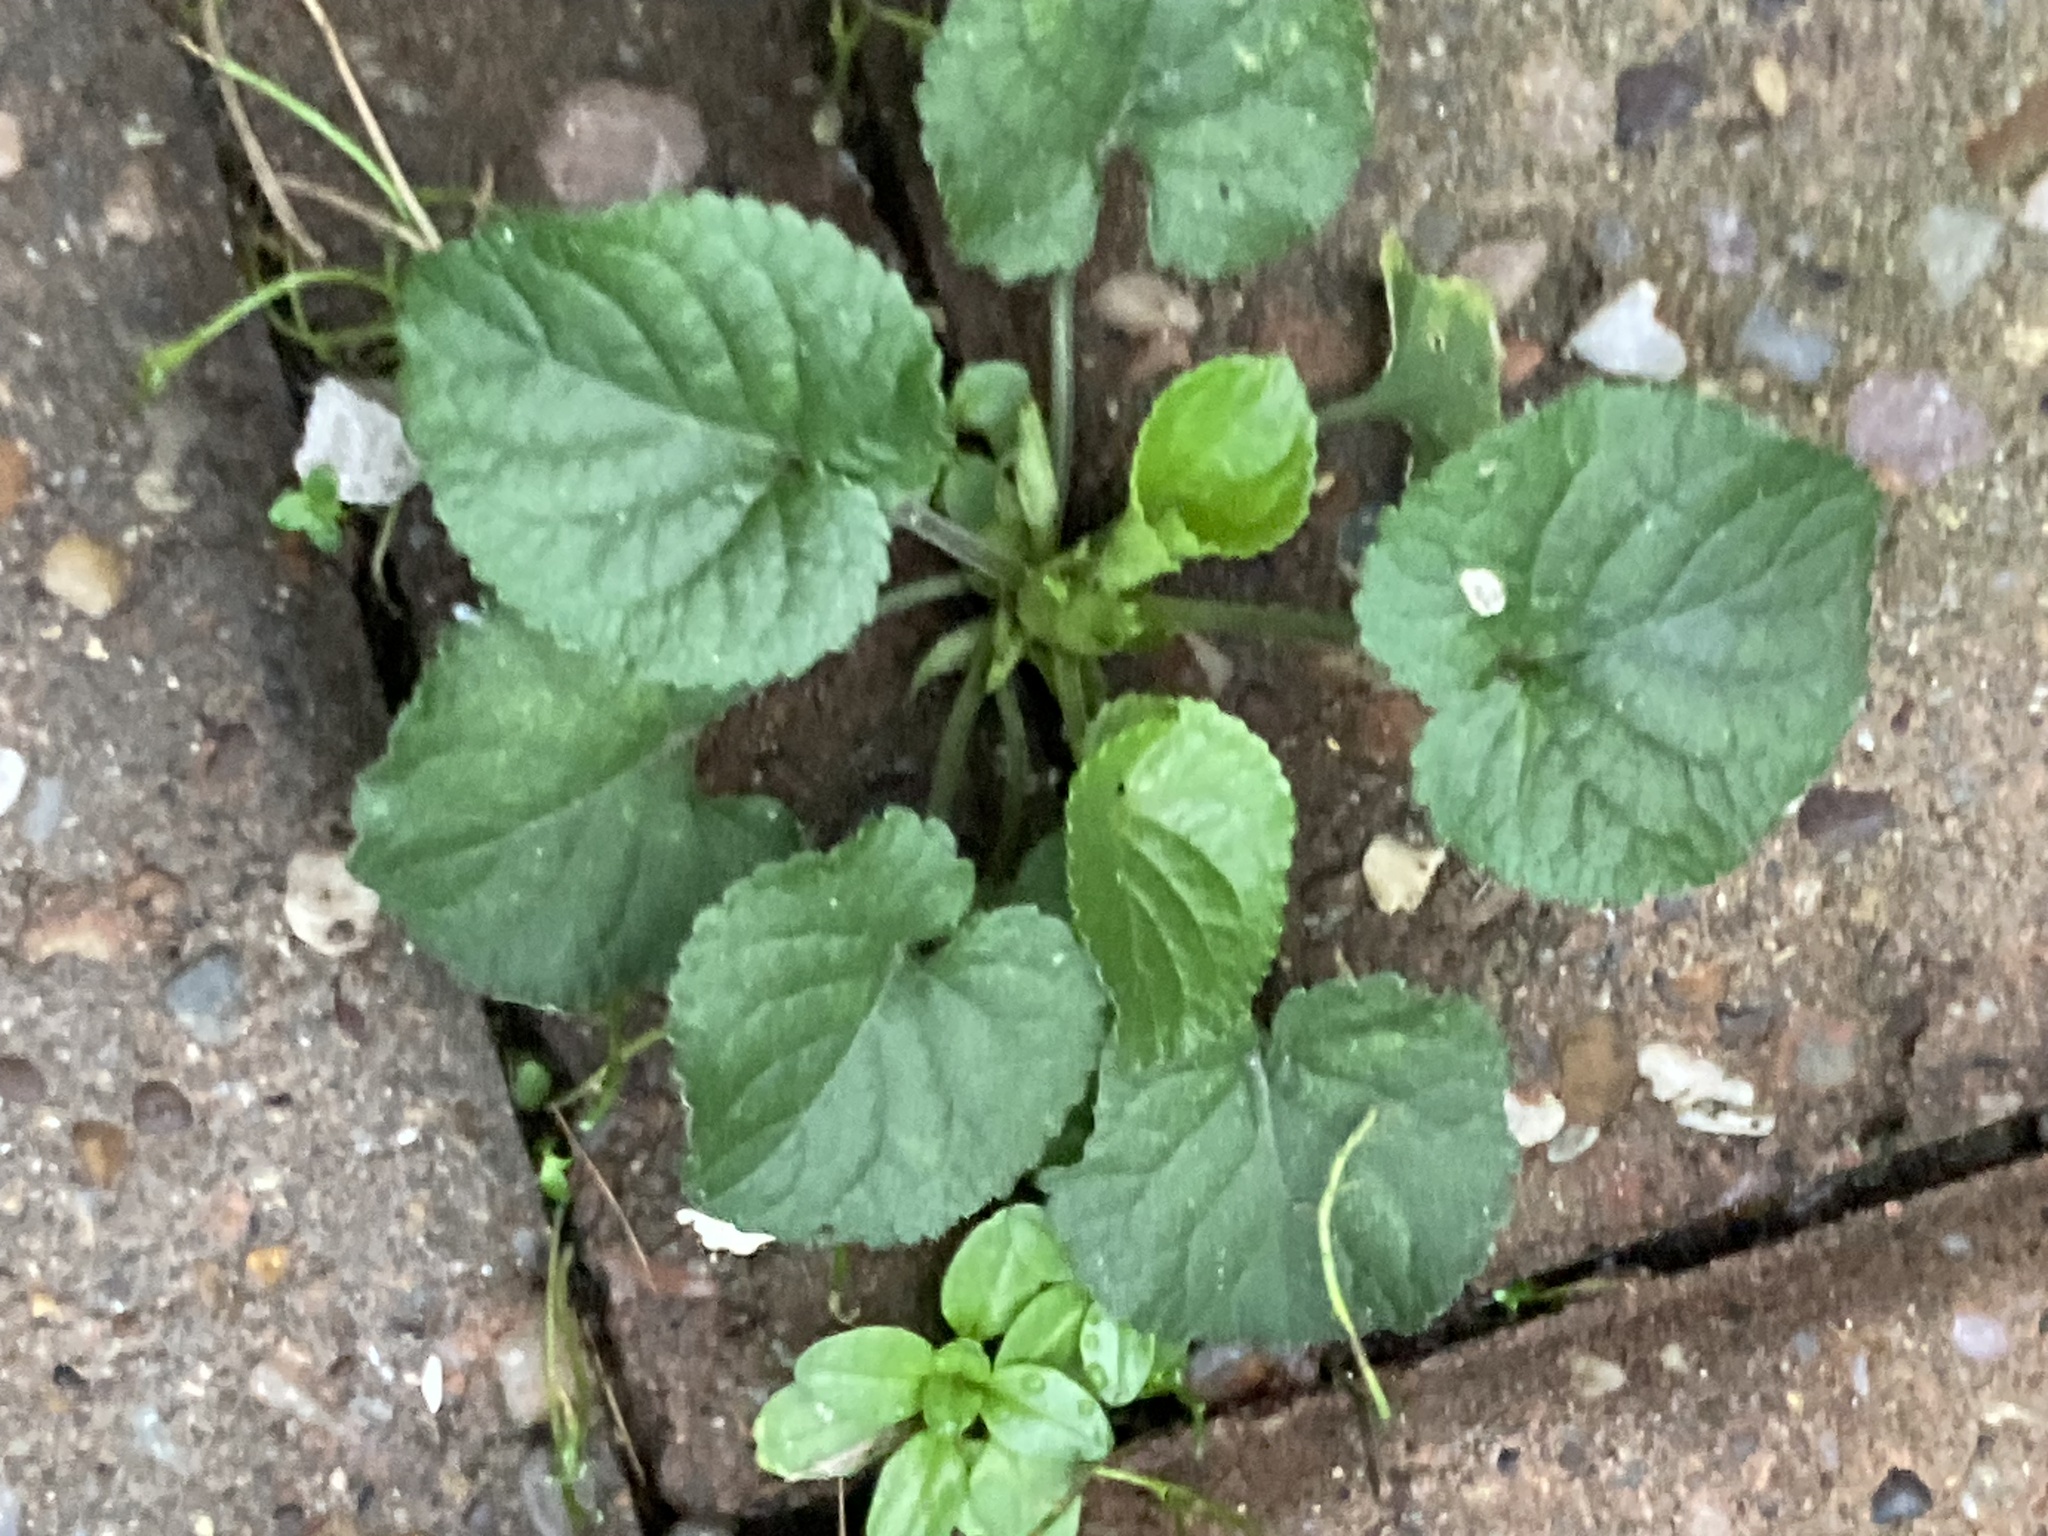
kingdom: Plantae
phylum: Tracheophyta
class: Magnoliopsida
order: Malpighiales
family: Violaceae
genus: Viola
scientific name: Viola odorata
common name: Sweet violet
